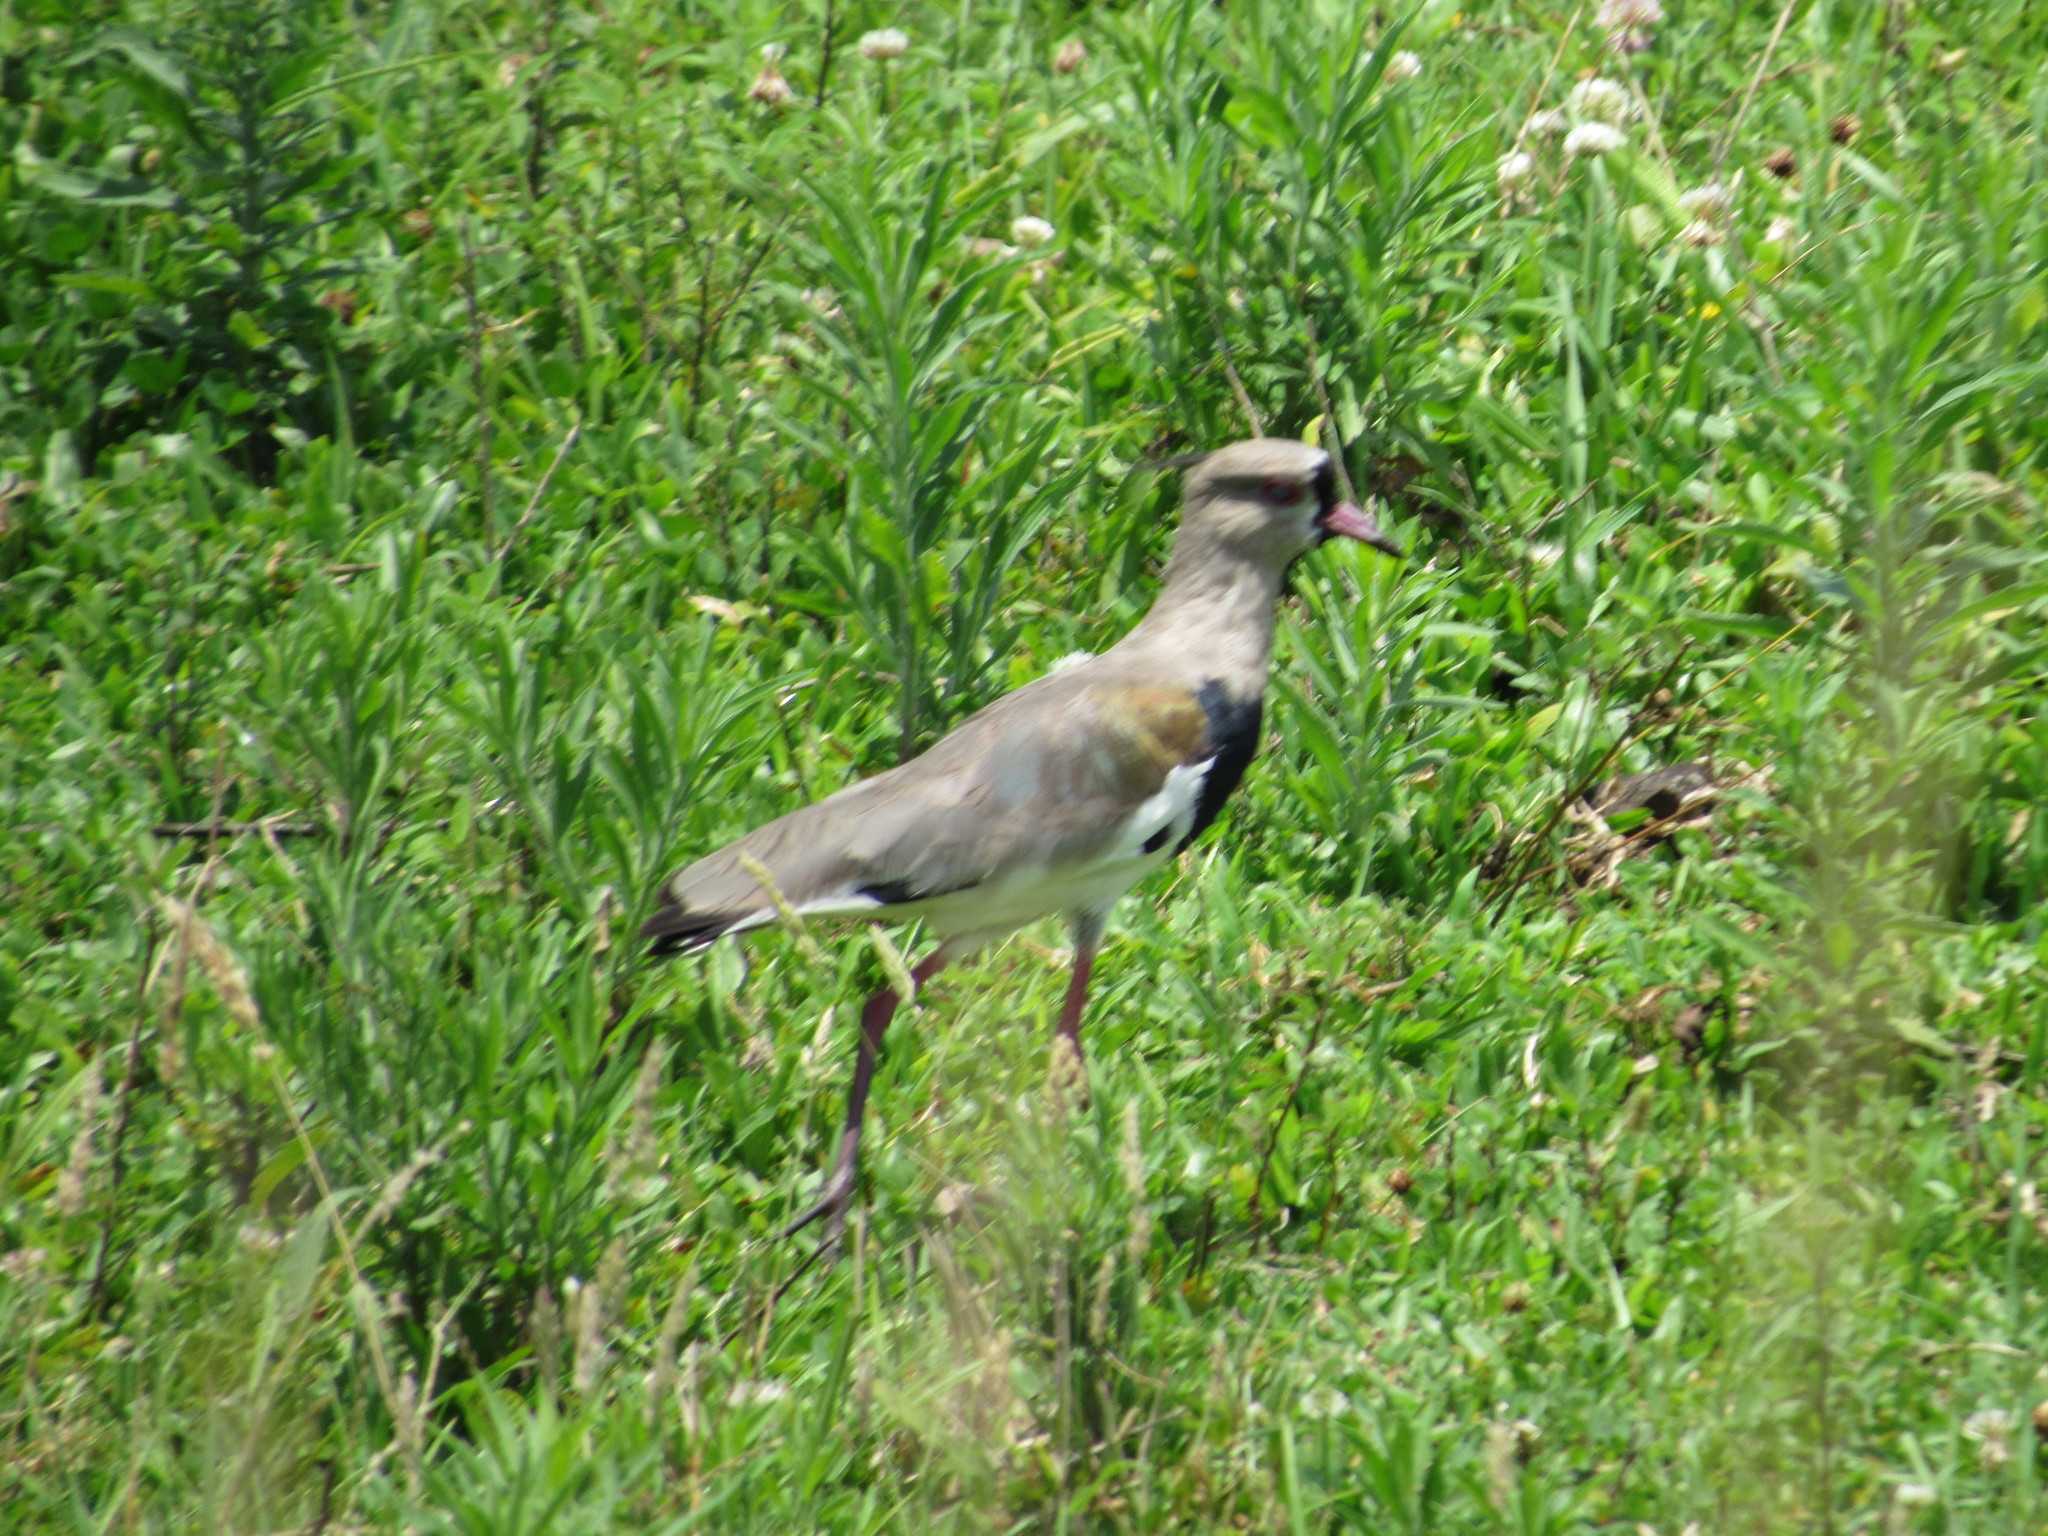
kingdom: Animalia
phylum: Chordata
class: Aves
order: Charadriiformes
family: Charadriidae
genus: Vanellus
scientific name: Vanellus chilensis
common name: Southern lapwing
